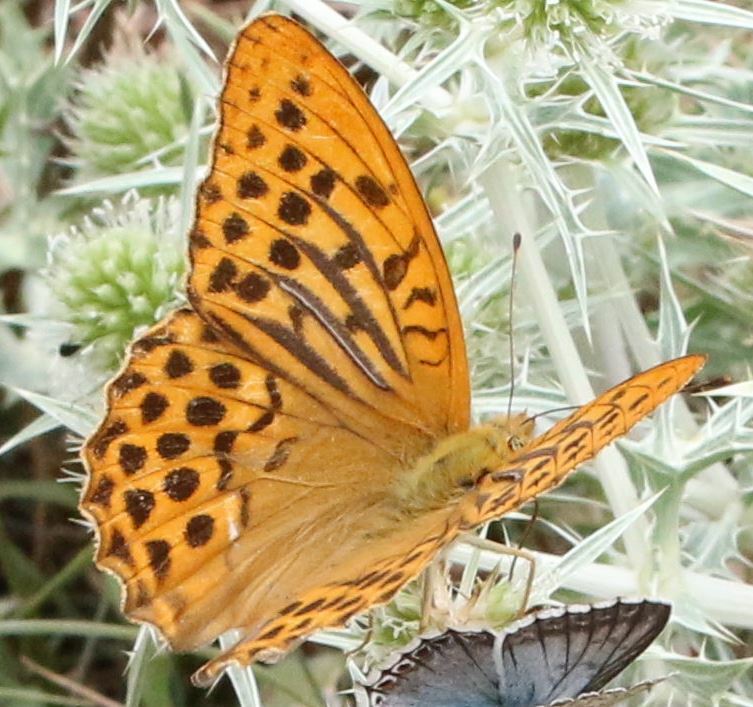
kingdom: Animalia
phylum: Arthropoda
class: Insecta
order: Lepidoptera
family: Nymphalidae
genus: Argynnis
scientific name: Argynnis paphia
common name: Silver-washed fritillary
